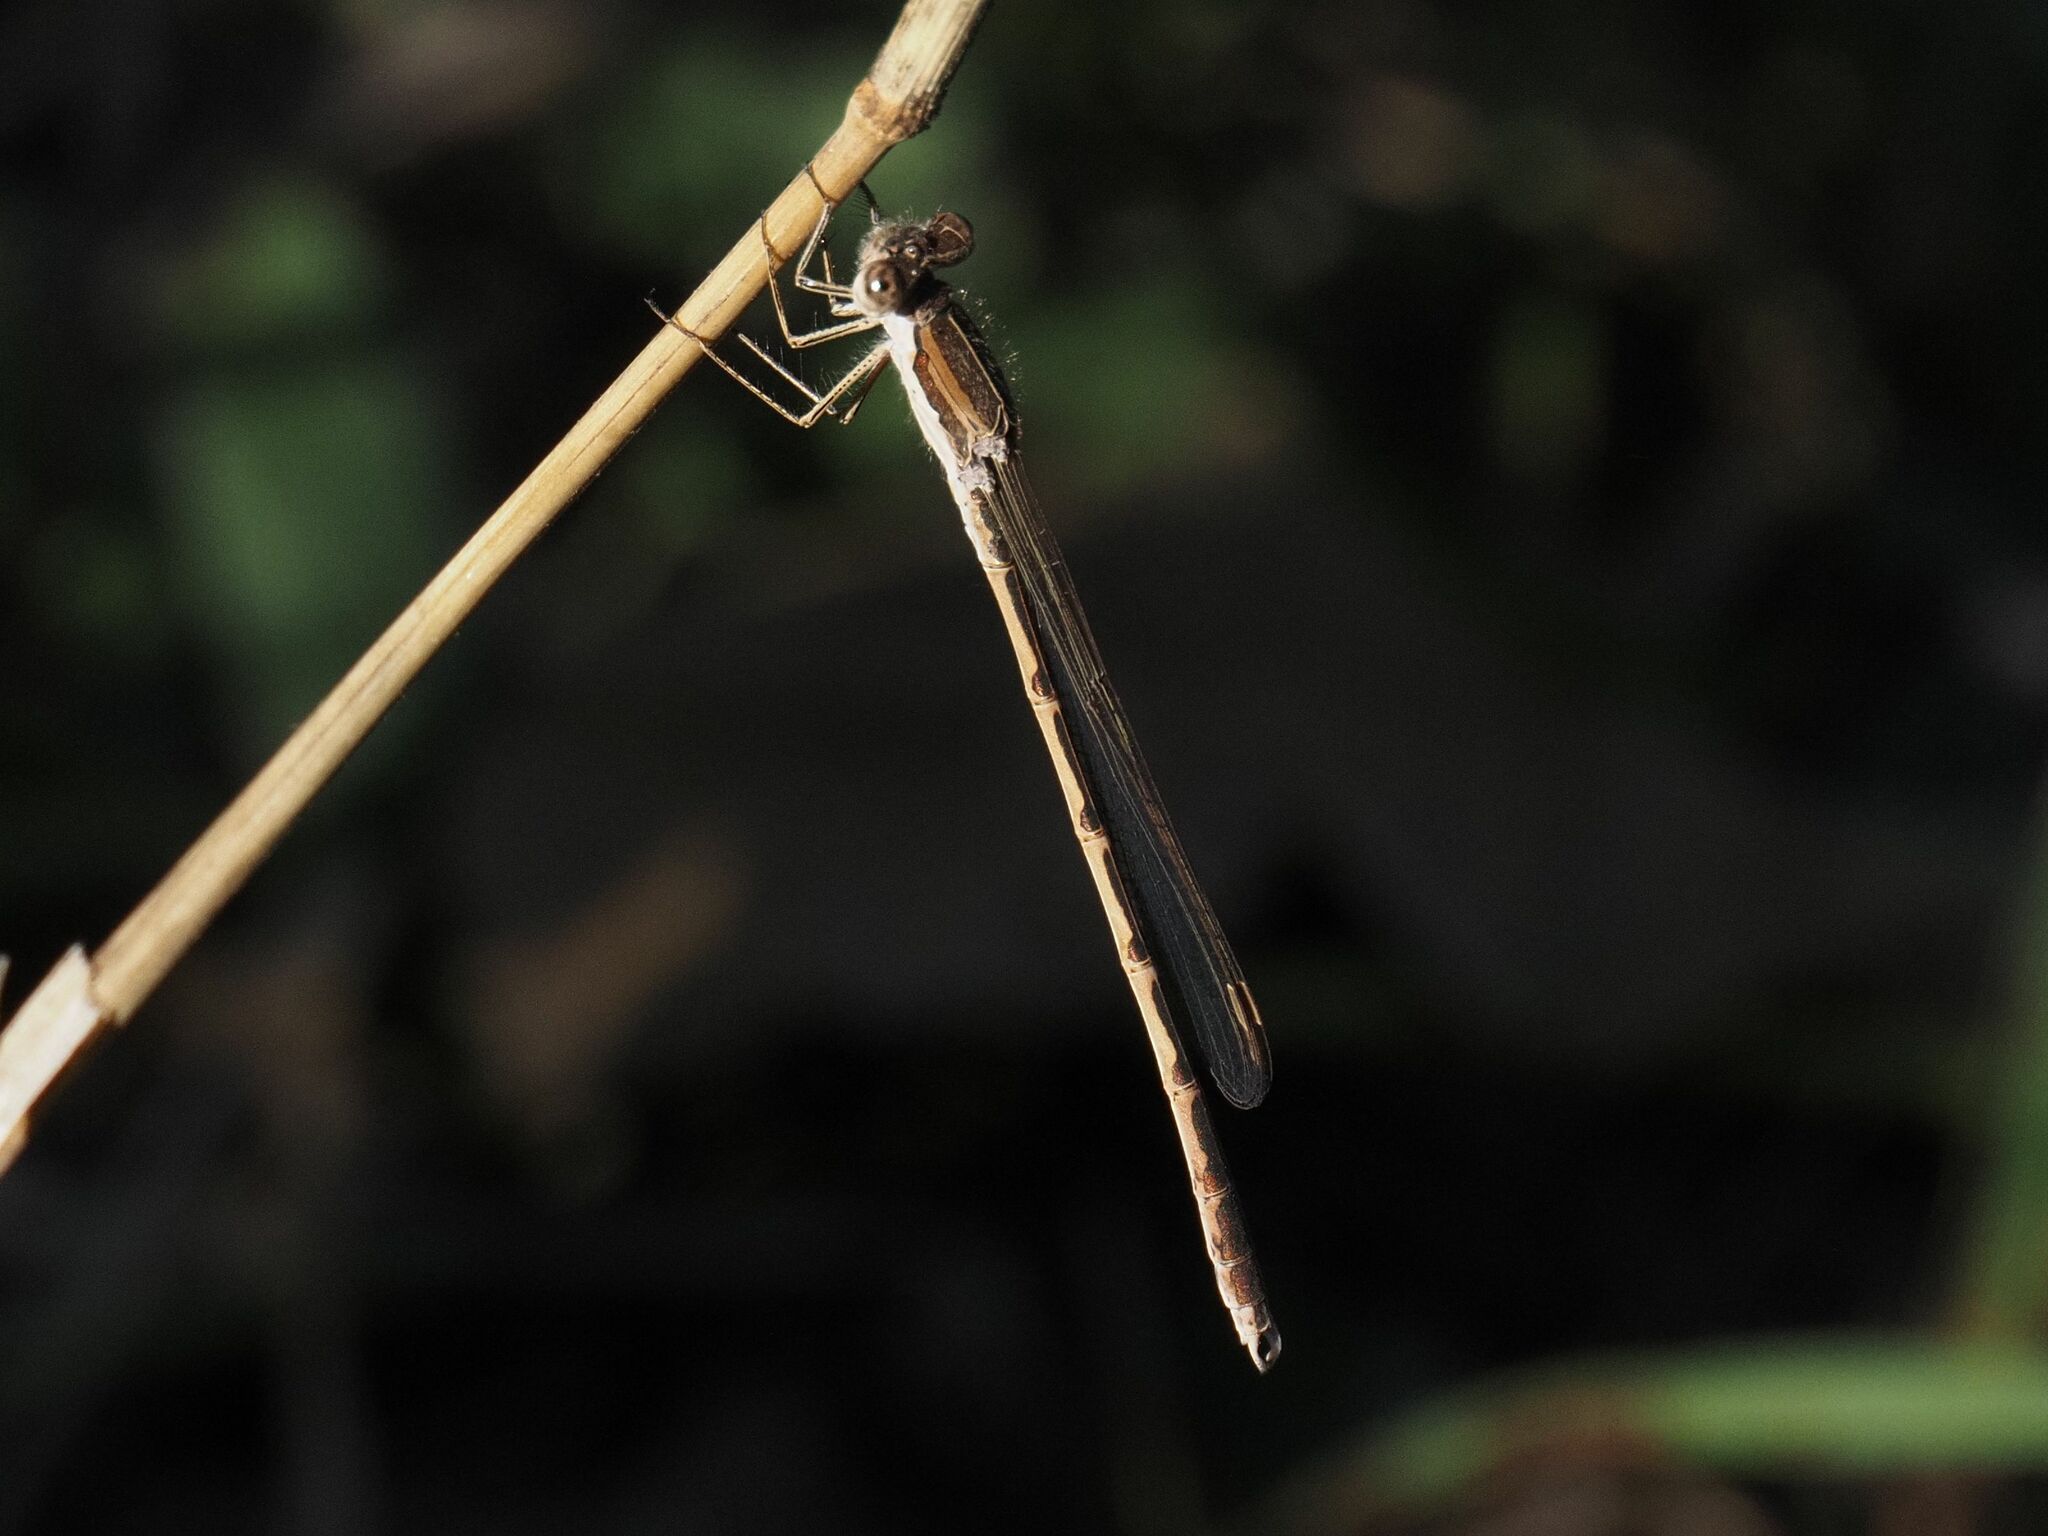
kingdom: Animalia
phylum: Arthropoda
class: Insecta
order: Odonata
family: Lestidae
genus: Sympecma
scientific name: Sympecma fusca
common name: Common winter damsel
